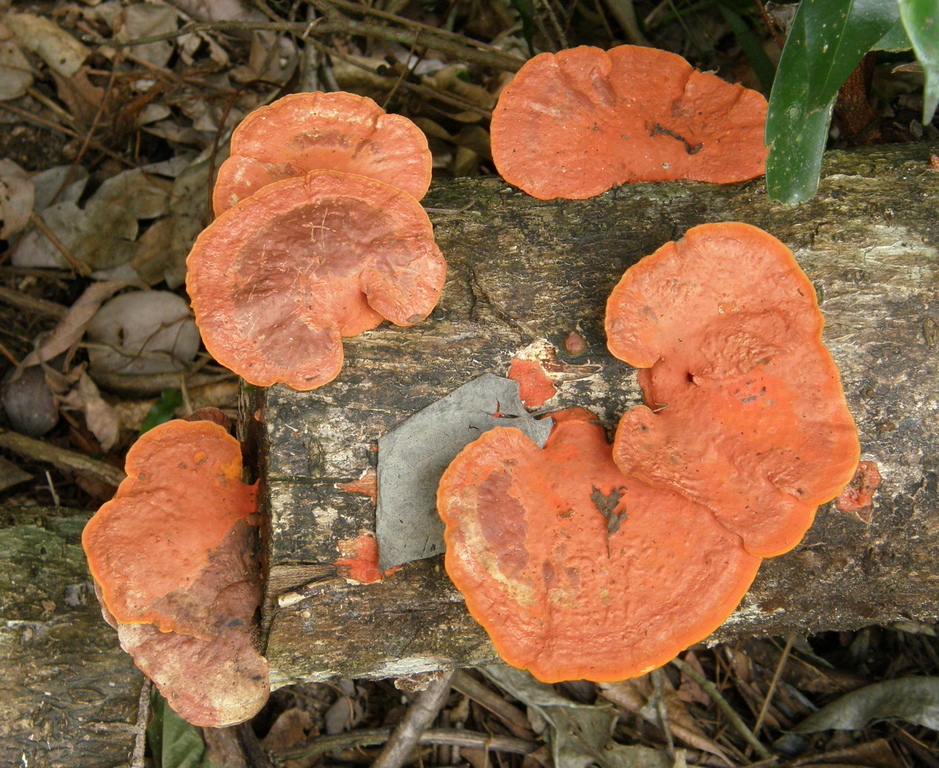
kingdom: Fungi
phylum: Basidiomycota
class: Agaricomycetes
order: Polyporales
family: Polyporaceae
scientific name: Polyporaceae
